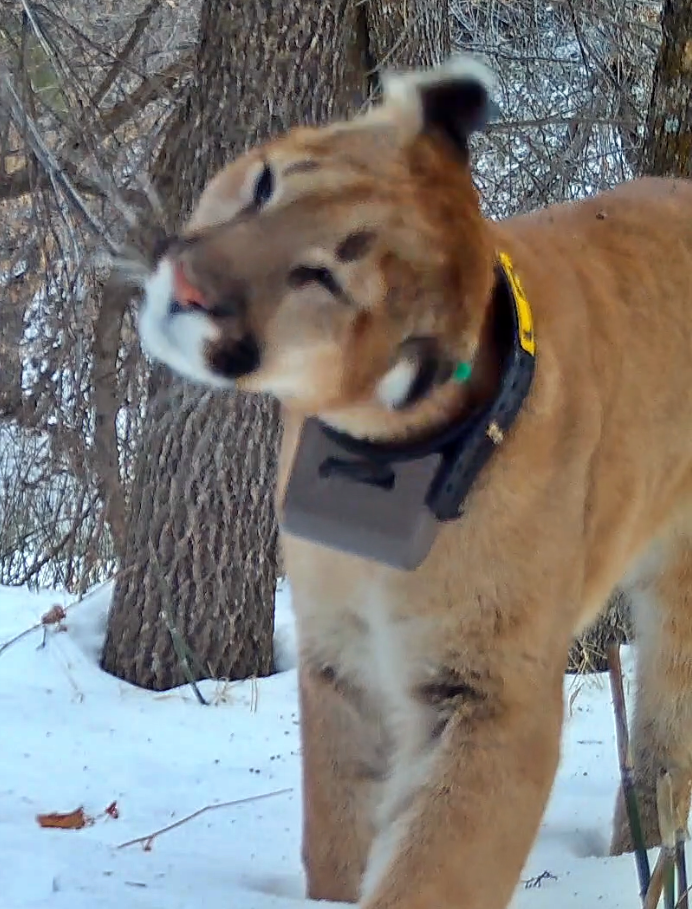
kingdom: Animalia
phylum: Chordata
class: Mammalia
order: Carnivora
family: Felidae
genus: Puma
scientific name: Puma concolor
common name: Puma
